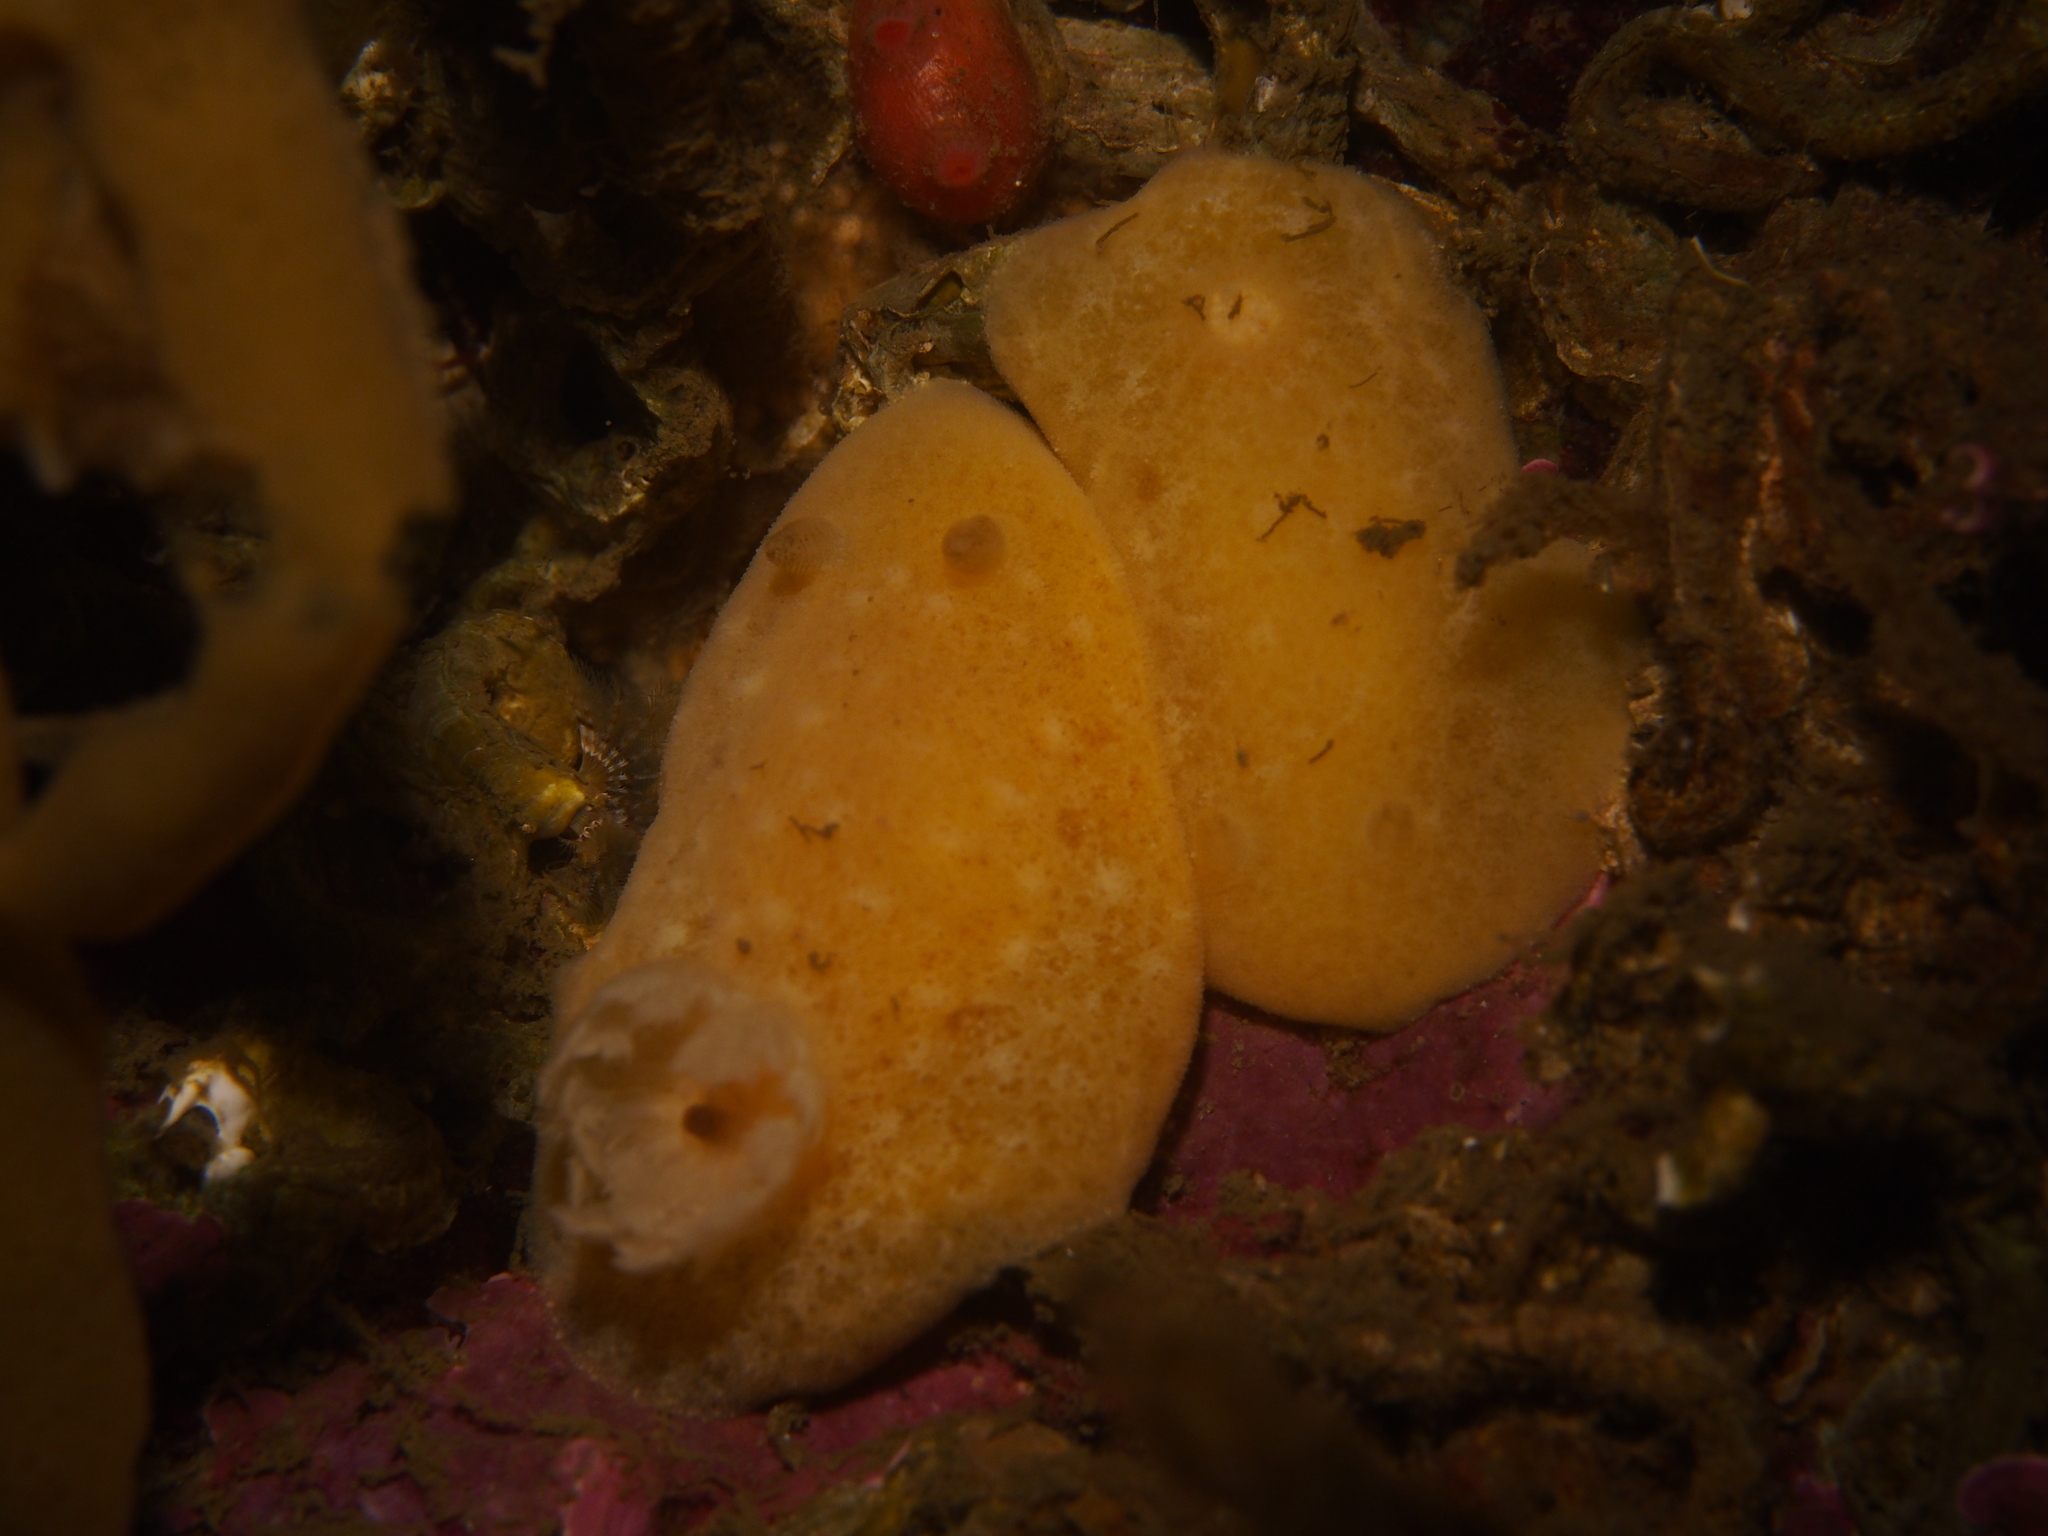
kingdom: Animalia
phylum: Mollusca
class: Gastropoda
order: Nudibranchia
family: Discodorididae
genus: Jorunna
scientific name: Jorunna tomentosa
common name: Grey sea slug
